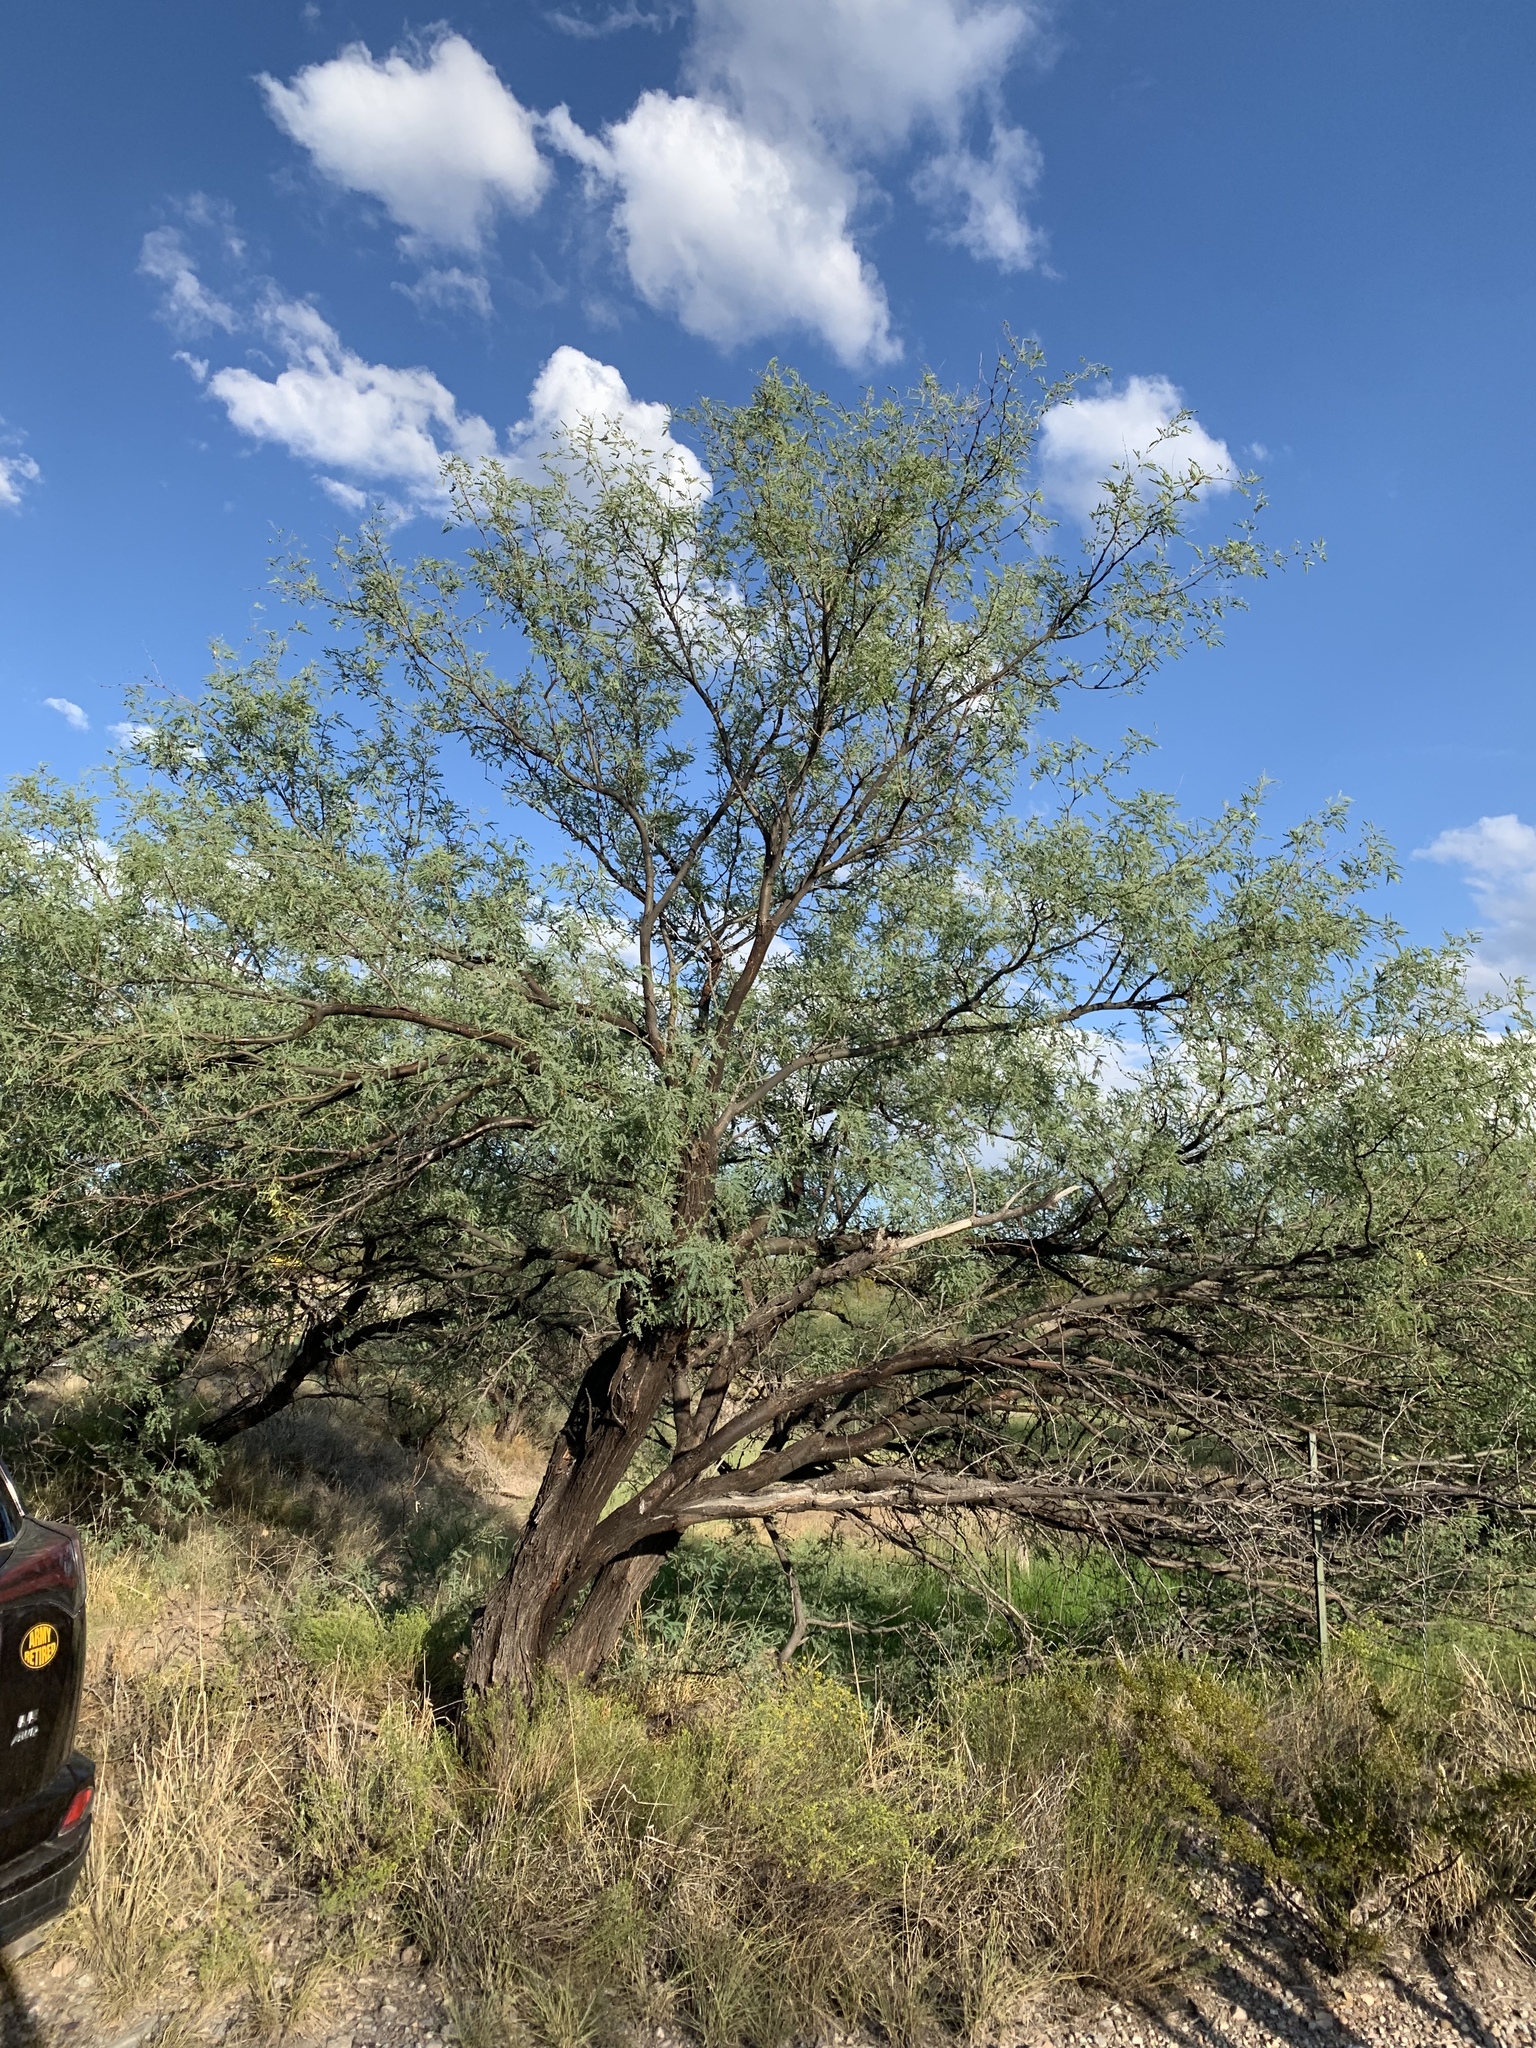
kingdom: Plantae
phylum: Tracheophyta
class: Magnoliopsida
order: Fabales
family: Fabaceae
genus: Prosopis
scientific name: Prosopis velutina
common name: Velvet mesquite
